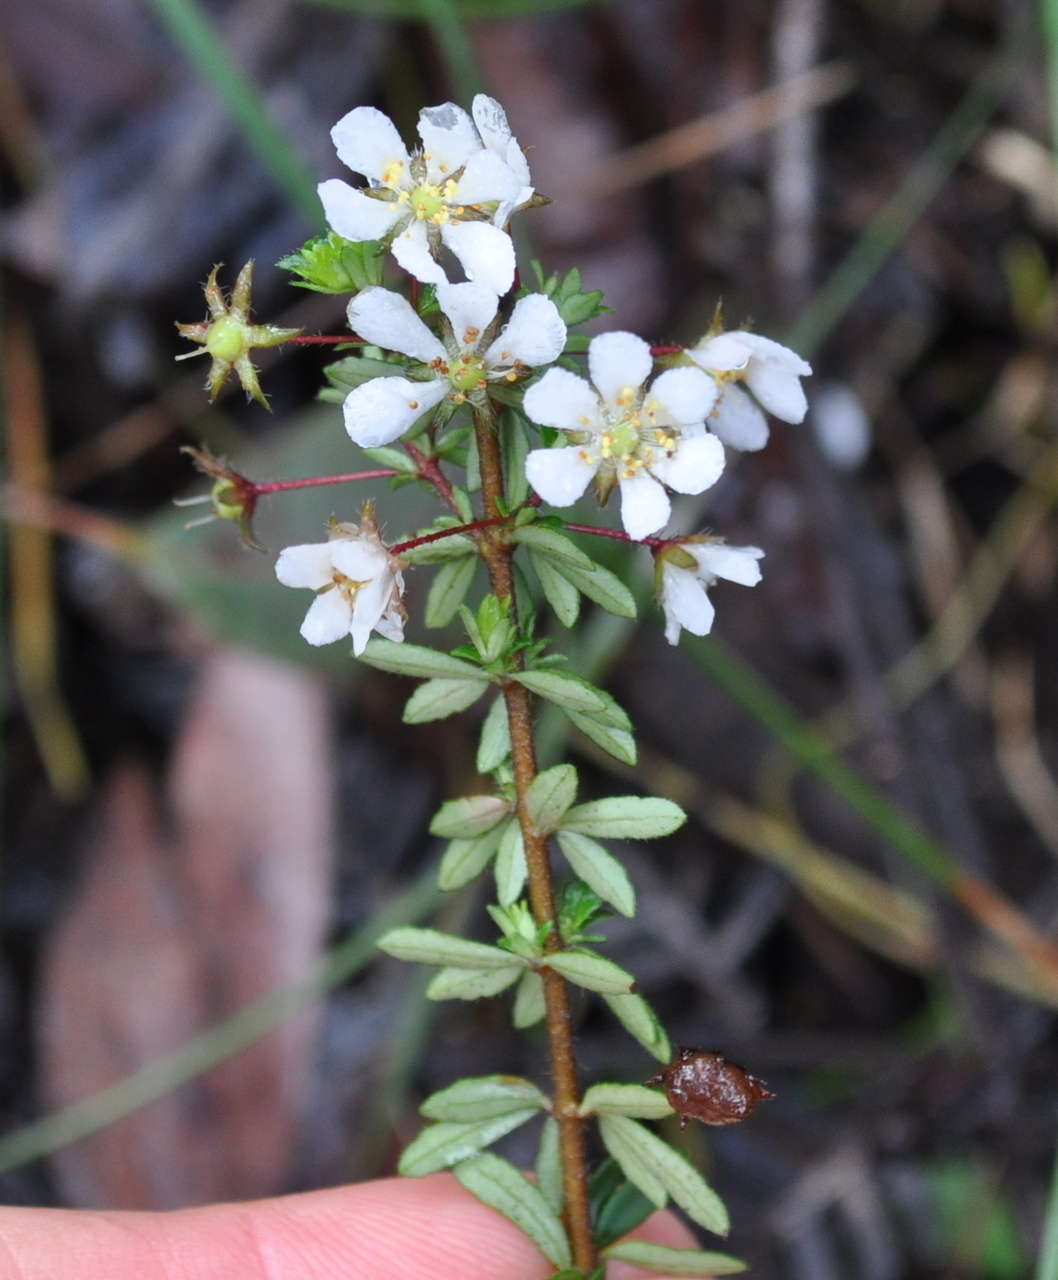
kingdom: Plantae
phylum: Tracheophyta
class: Magnoliopsida
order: Oxalidales
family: Cunoniaceae
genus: Bauera
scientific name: Bauera rubioides
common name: River-rose
